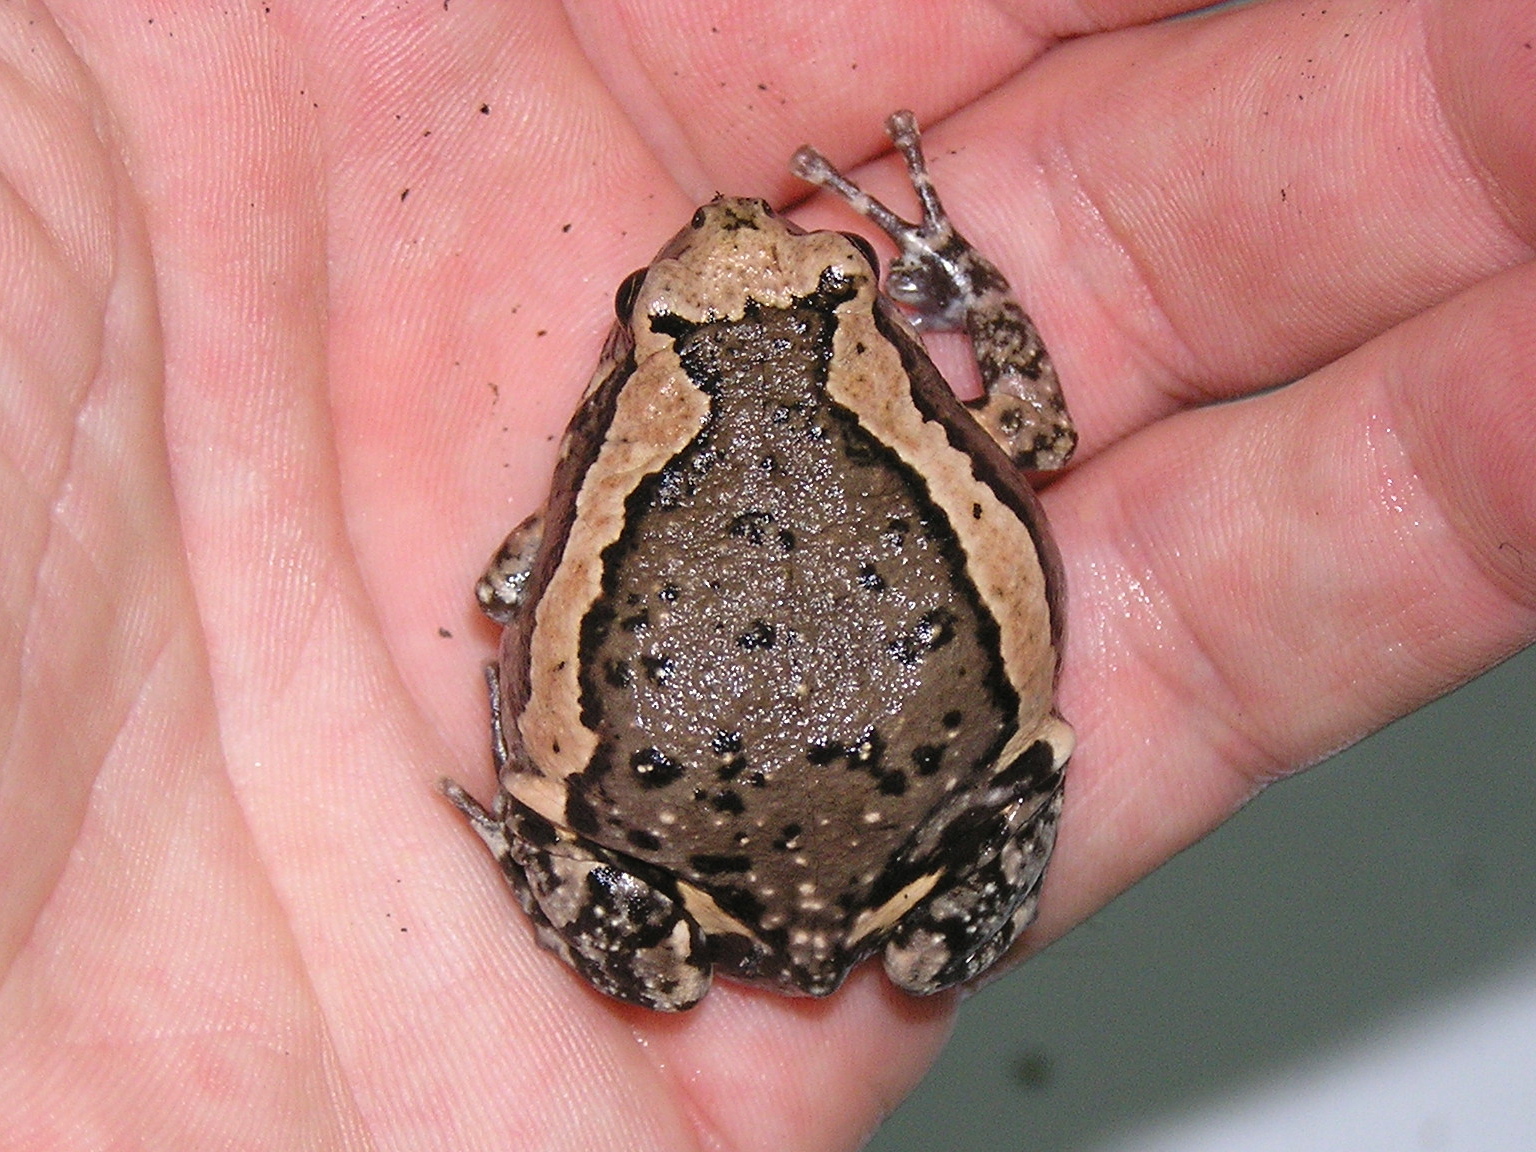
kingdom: Animalia
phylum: Chordata
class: Amphibia
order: Anura
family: Microhylidae
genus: Kaloula
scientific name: Kaloula pulchra
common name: Common,banded bullfrog
